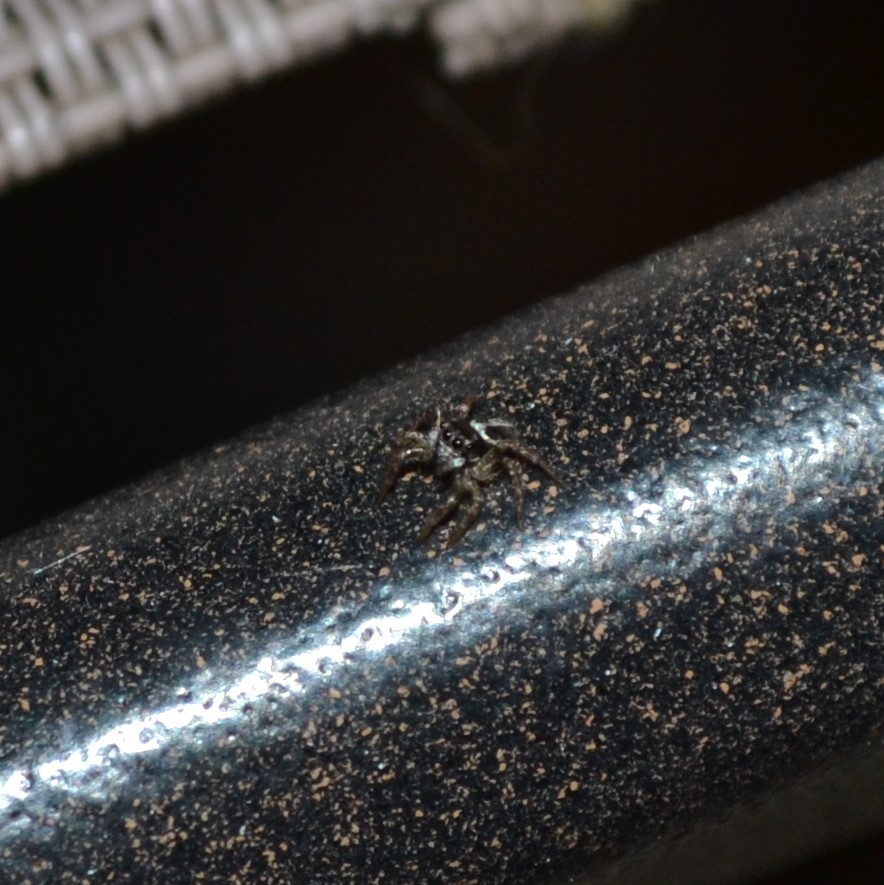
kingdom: Animalia
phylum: Arthropoda
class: Arachnida
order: Araneae
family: Salticidae
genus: Anasaitis
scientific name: Anasaitis canosa
